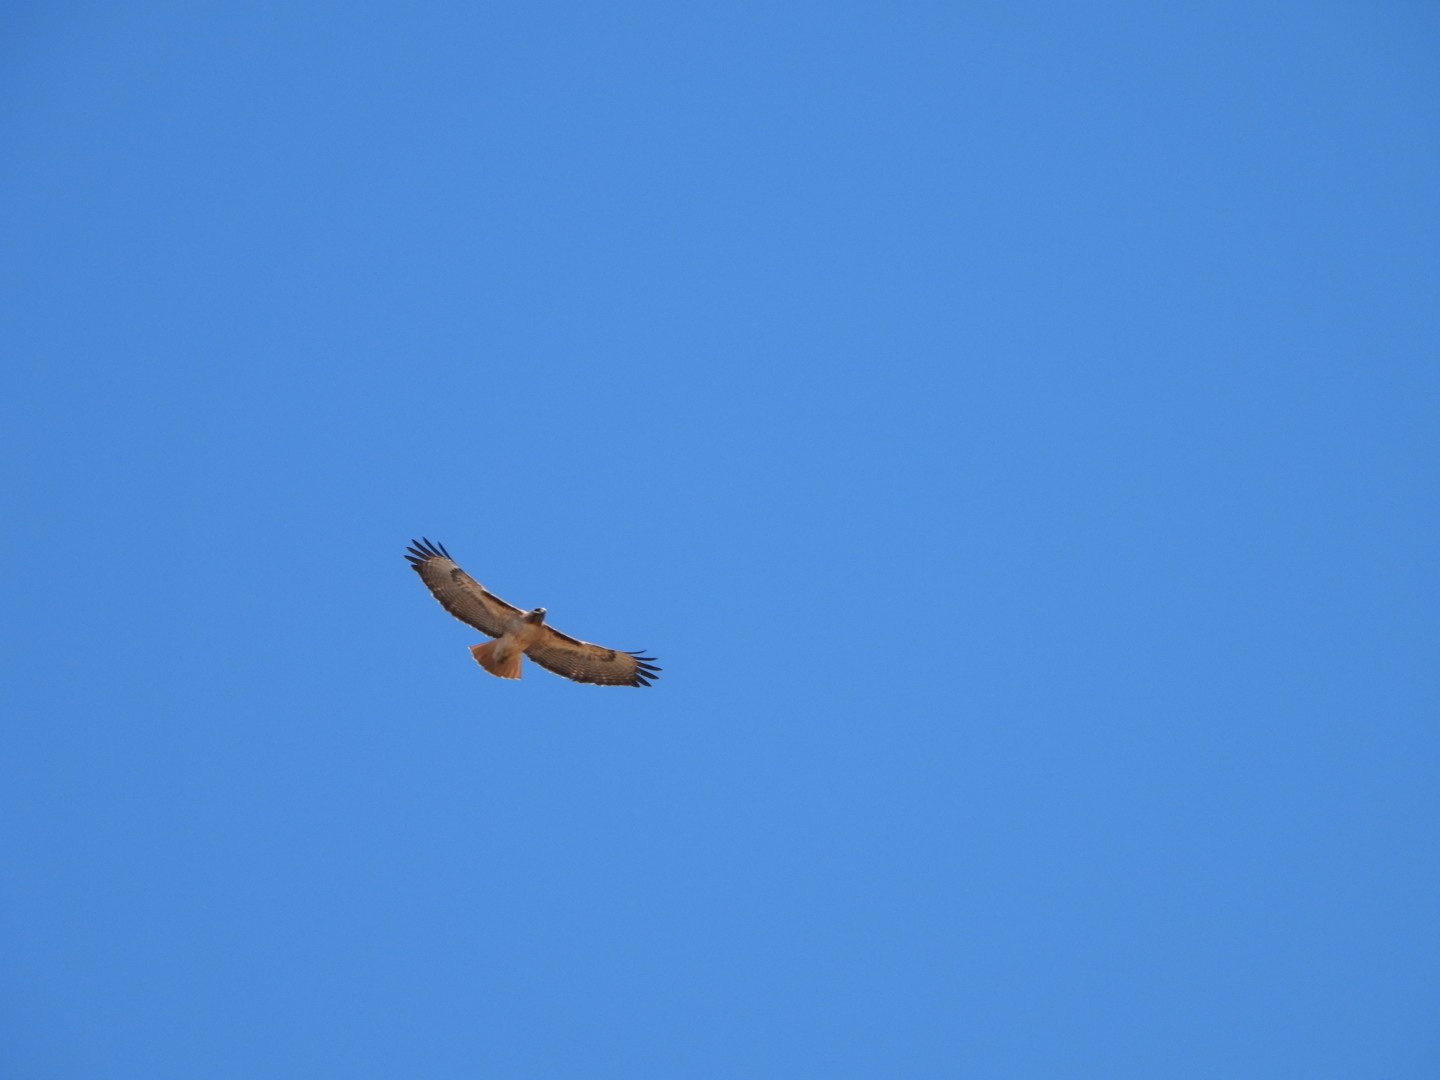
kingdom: Animalia
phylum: Chordata
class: Aves
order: Accipitriformes
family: Accipitridae
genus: Buteo
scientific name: Buteo jamaicensis
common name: Red-tailed hawk
